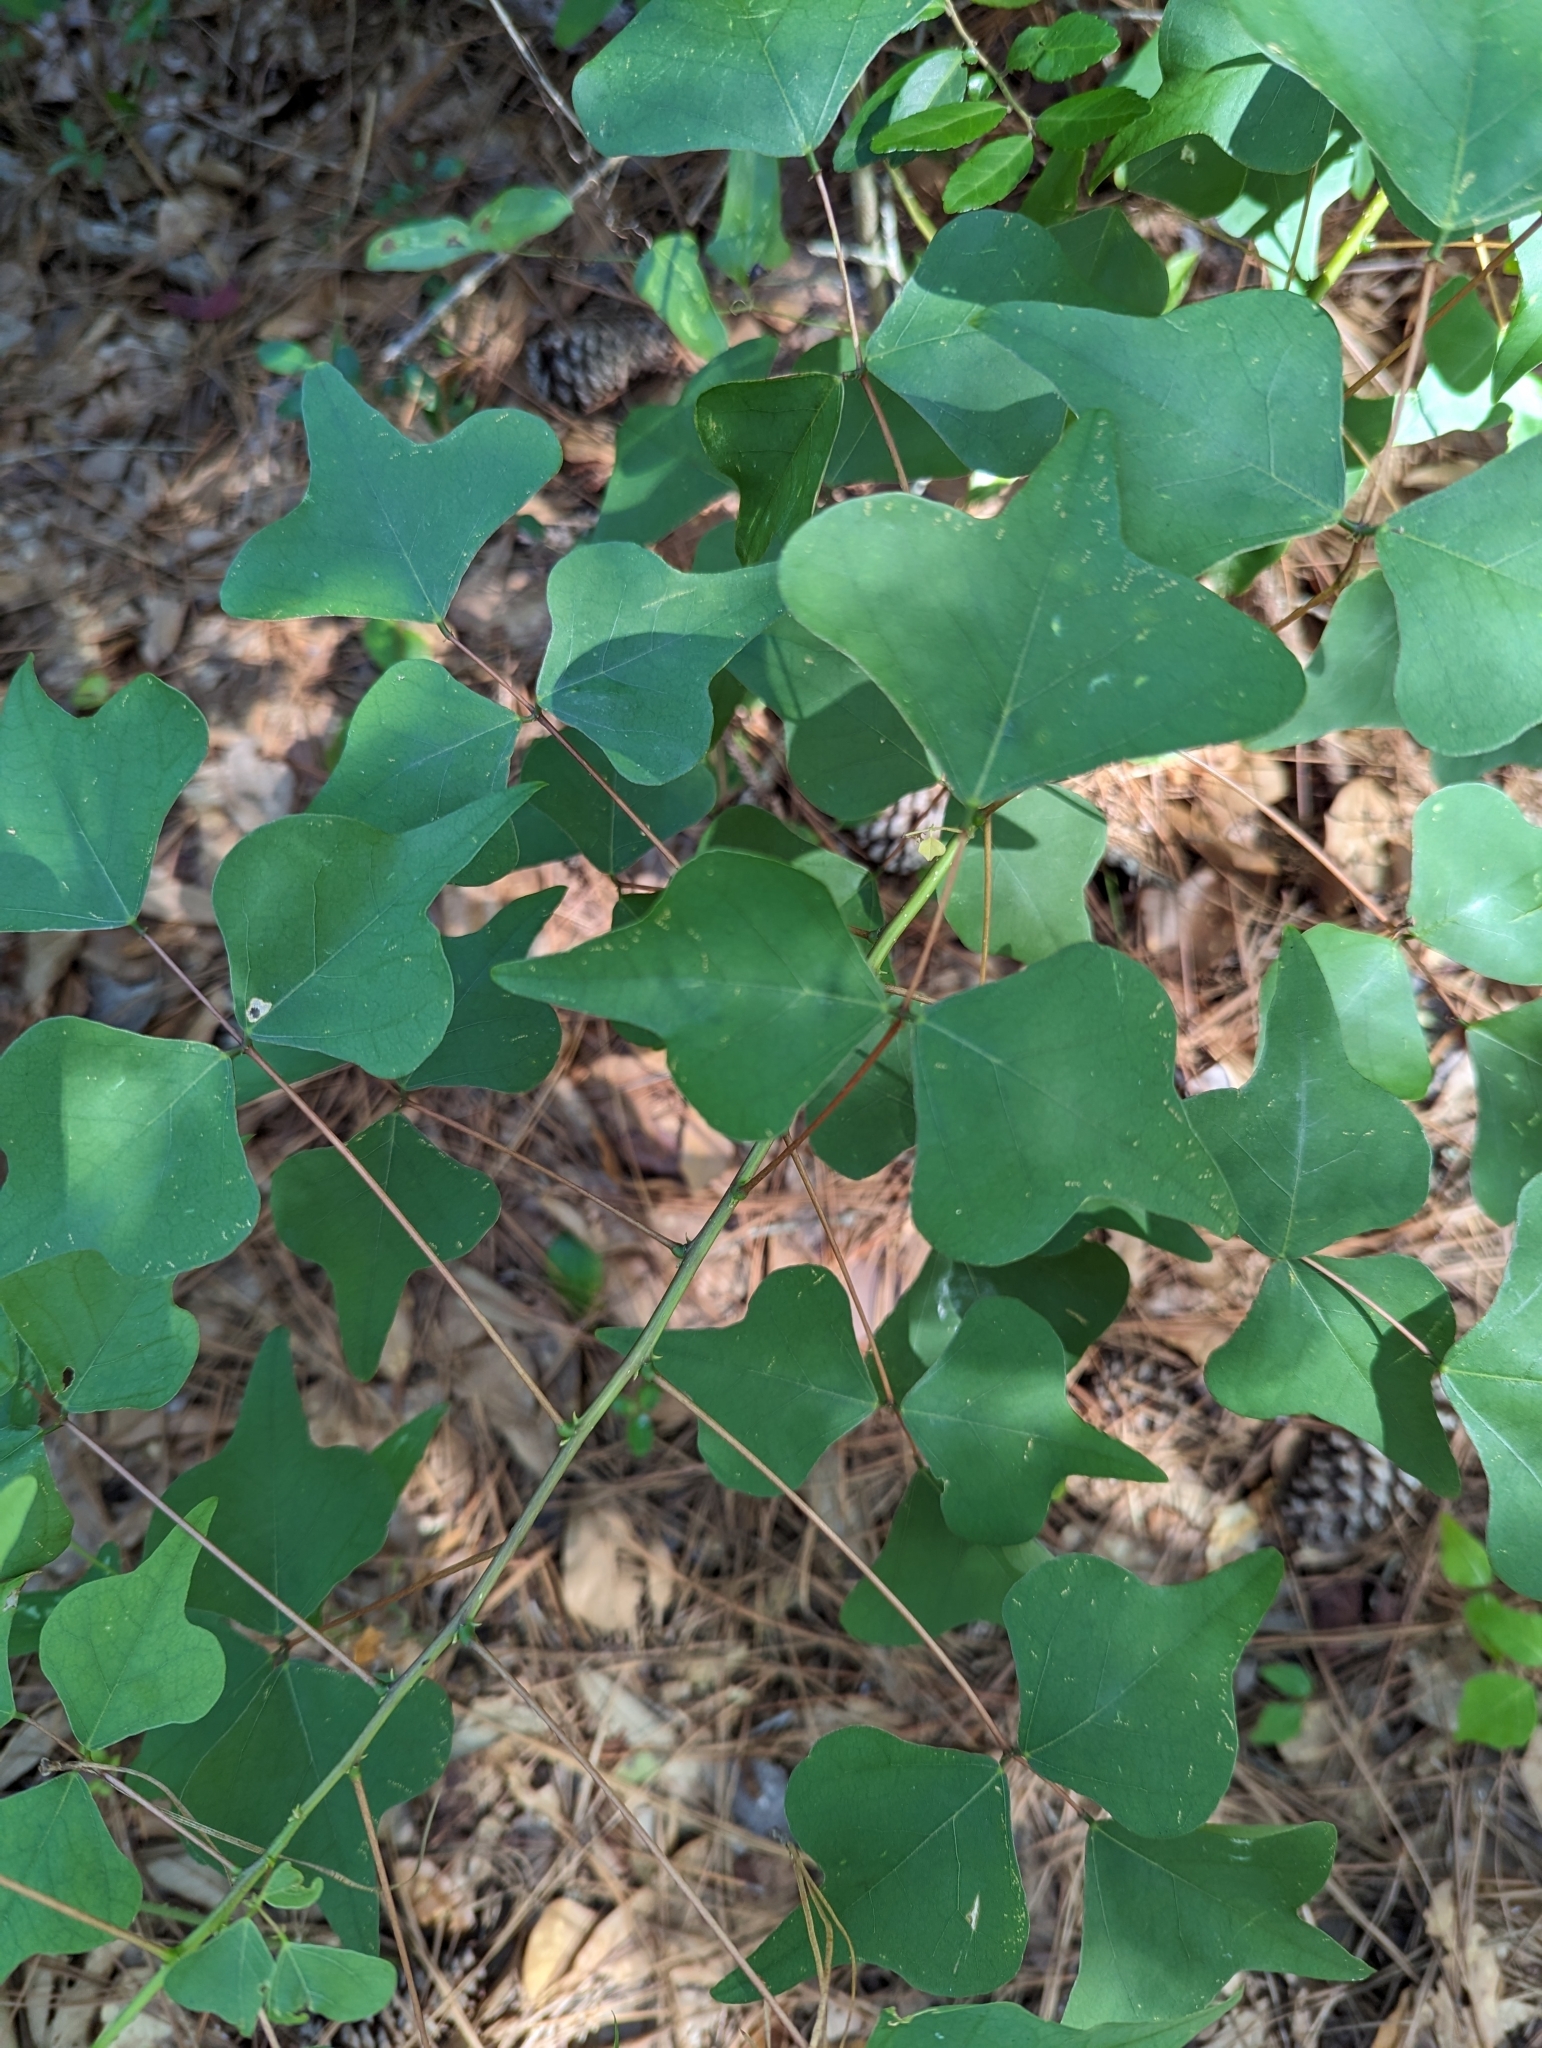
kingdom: Plantae
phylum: Tracheophyta
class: Magnoliopsida
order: Fabales
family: Fabaceae
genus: Erythrina
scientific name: Erythrina herbacea
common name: Coral-bean
